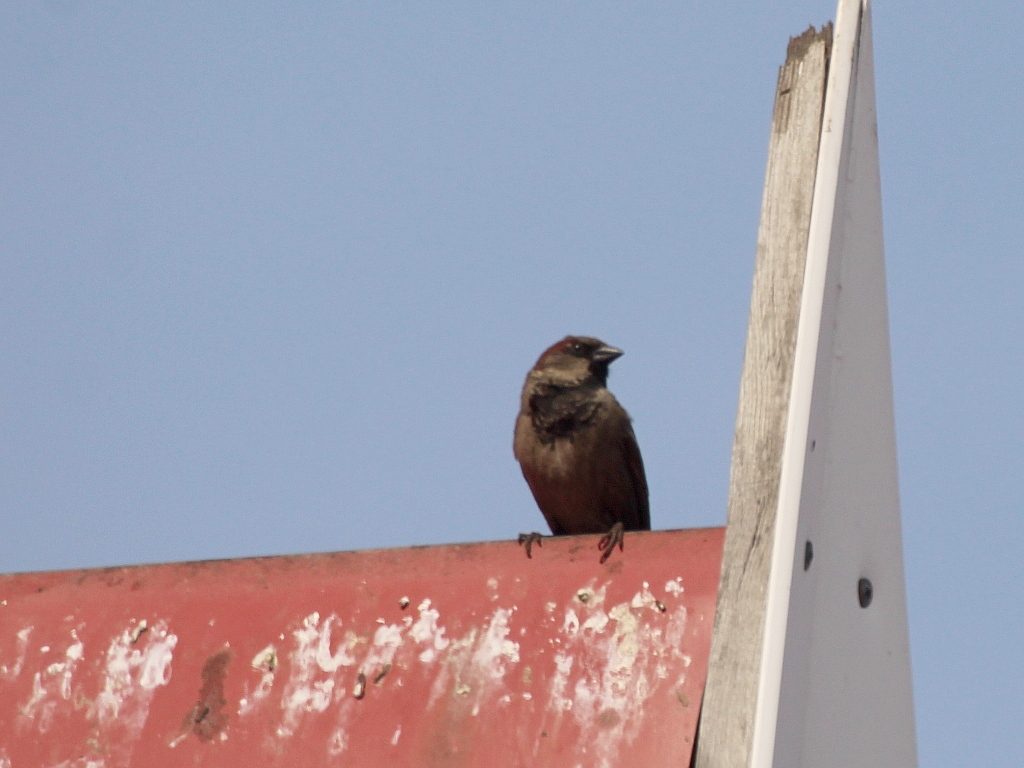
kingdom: Animalia
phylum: Chordata
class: Aves
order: Passeriformes
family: Passeridae
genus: Passer
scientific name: Passer domesticus
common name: House sparrow
